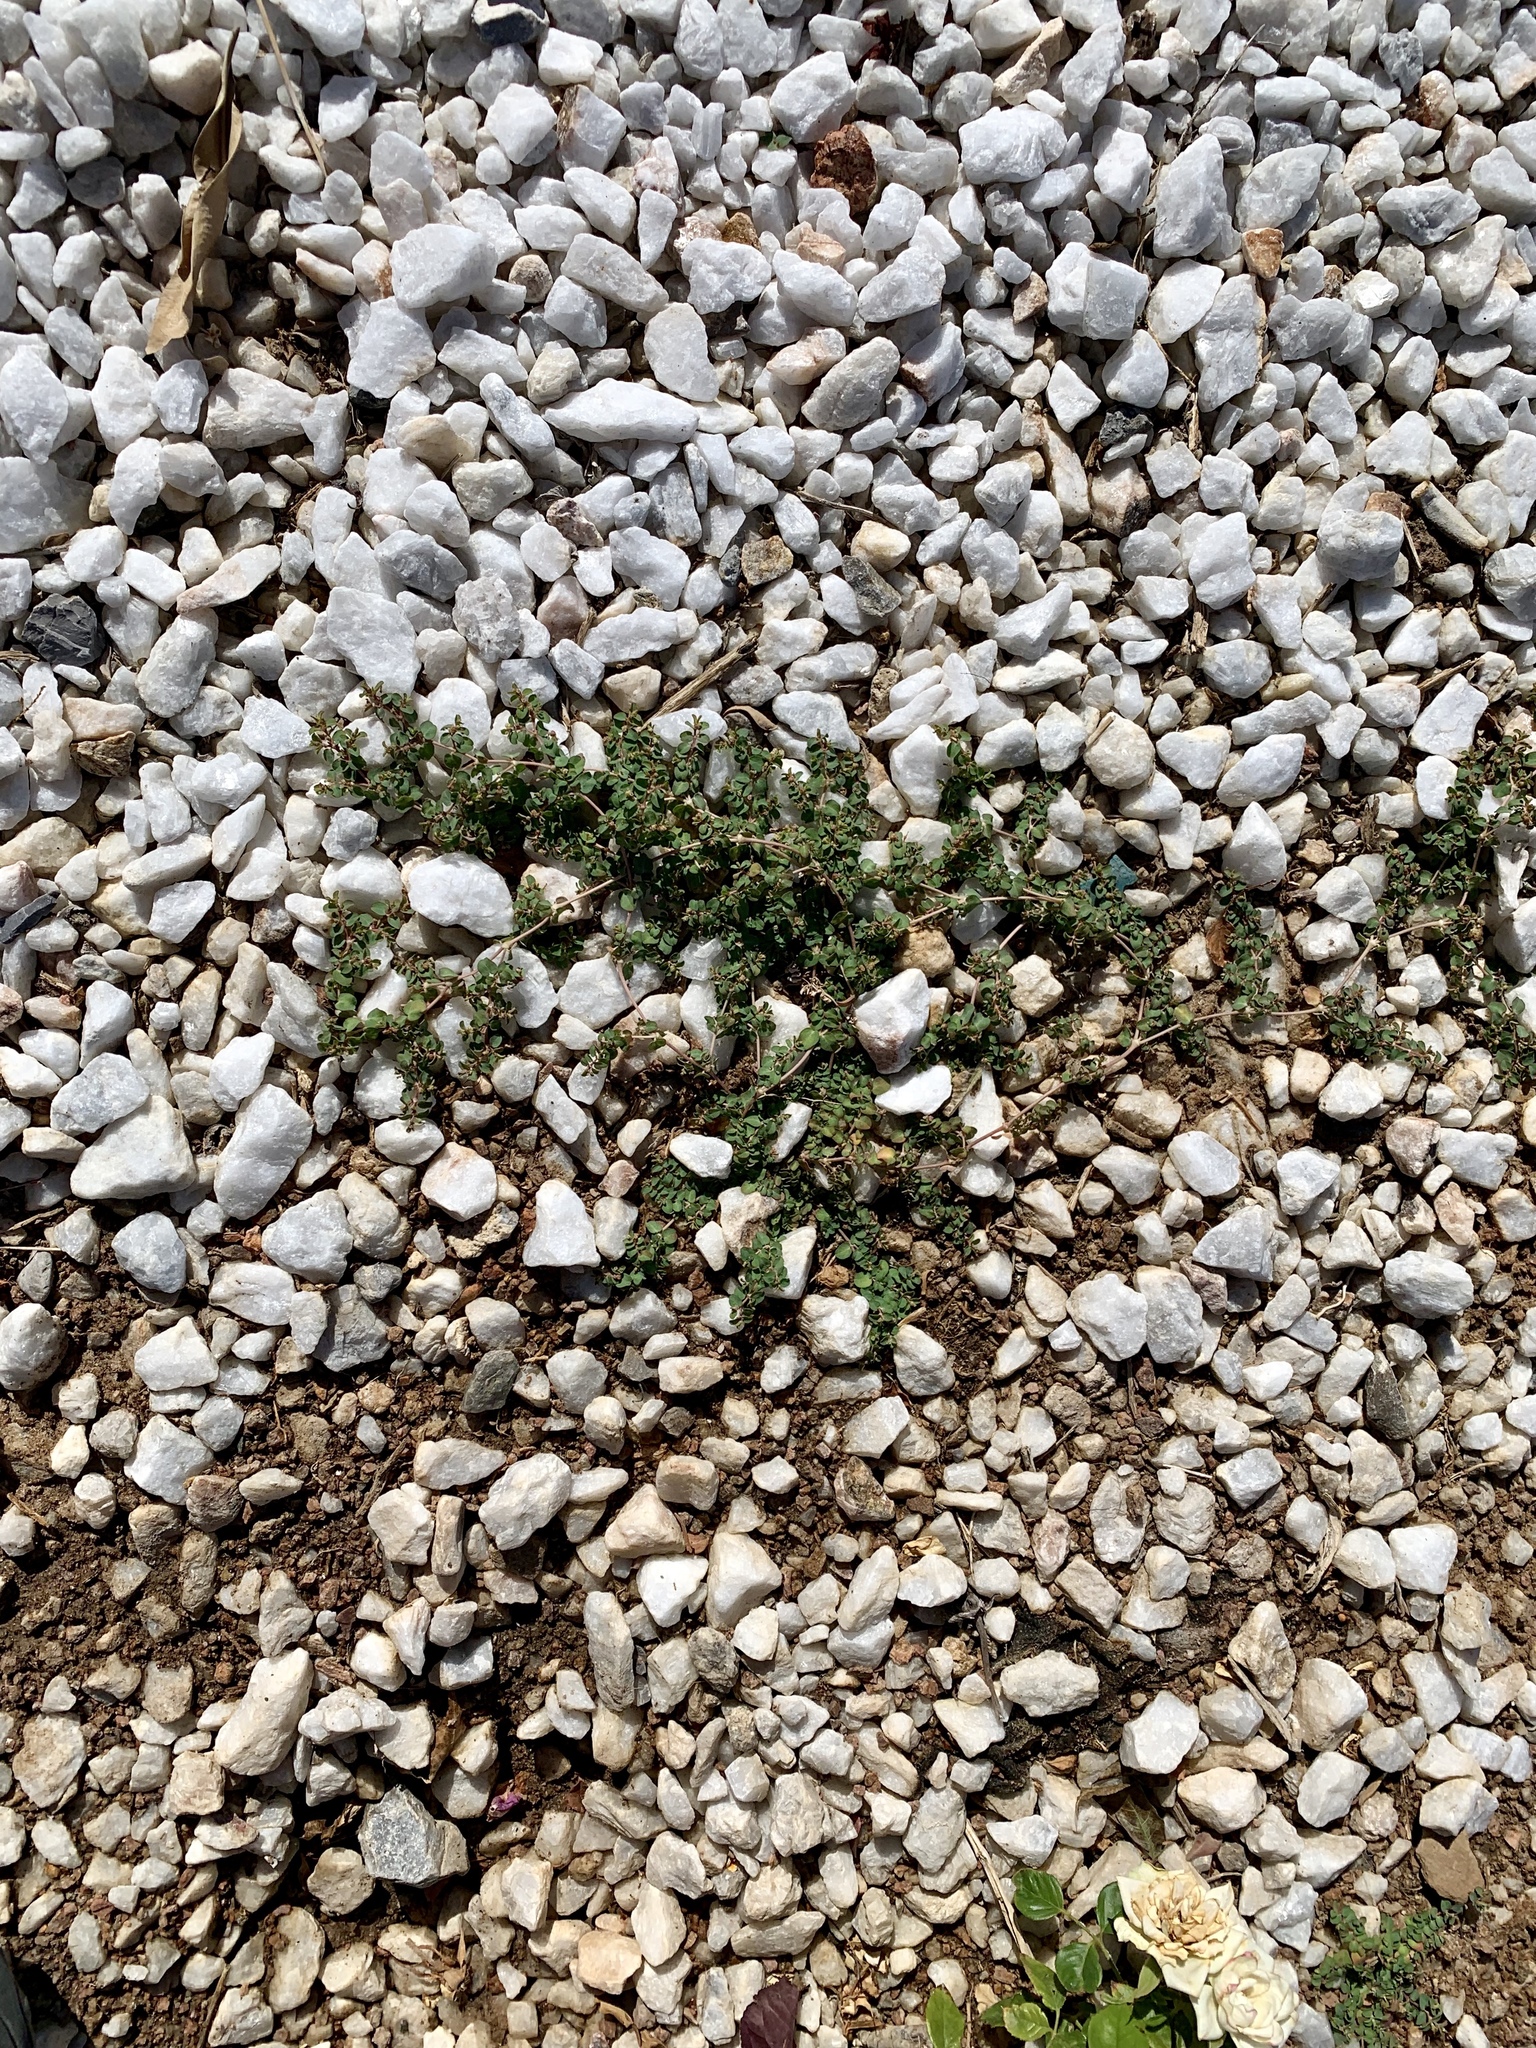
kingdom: Plantae
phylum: Tracheophyta
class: Magnoliopsida
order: Malpighiales
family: Euphorbiaceae
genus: Euphorbia
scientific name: Euphorbia serpens
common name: Matted sandmat
